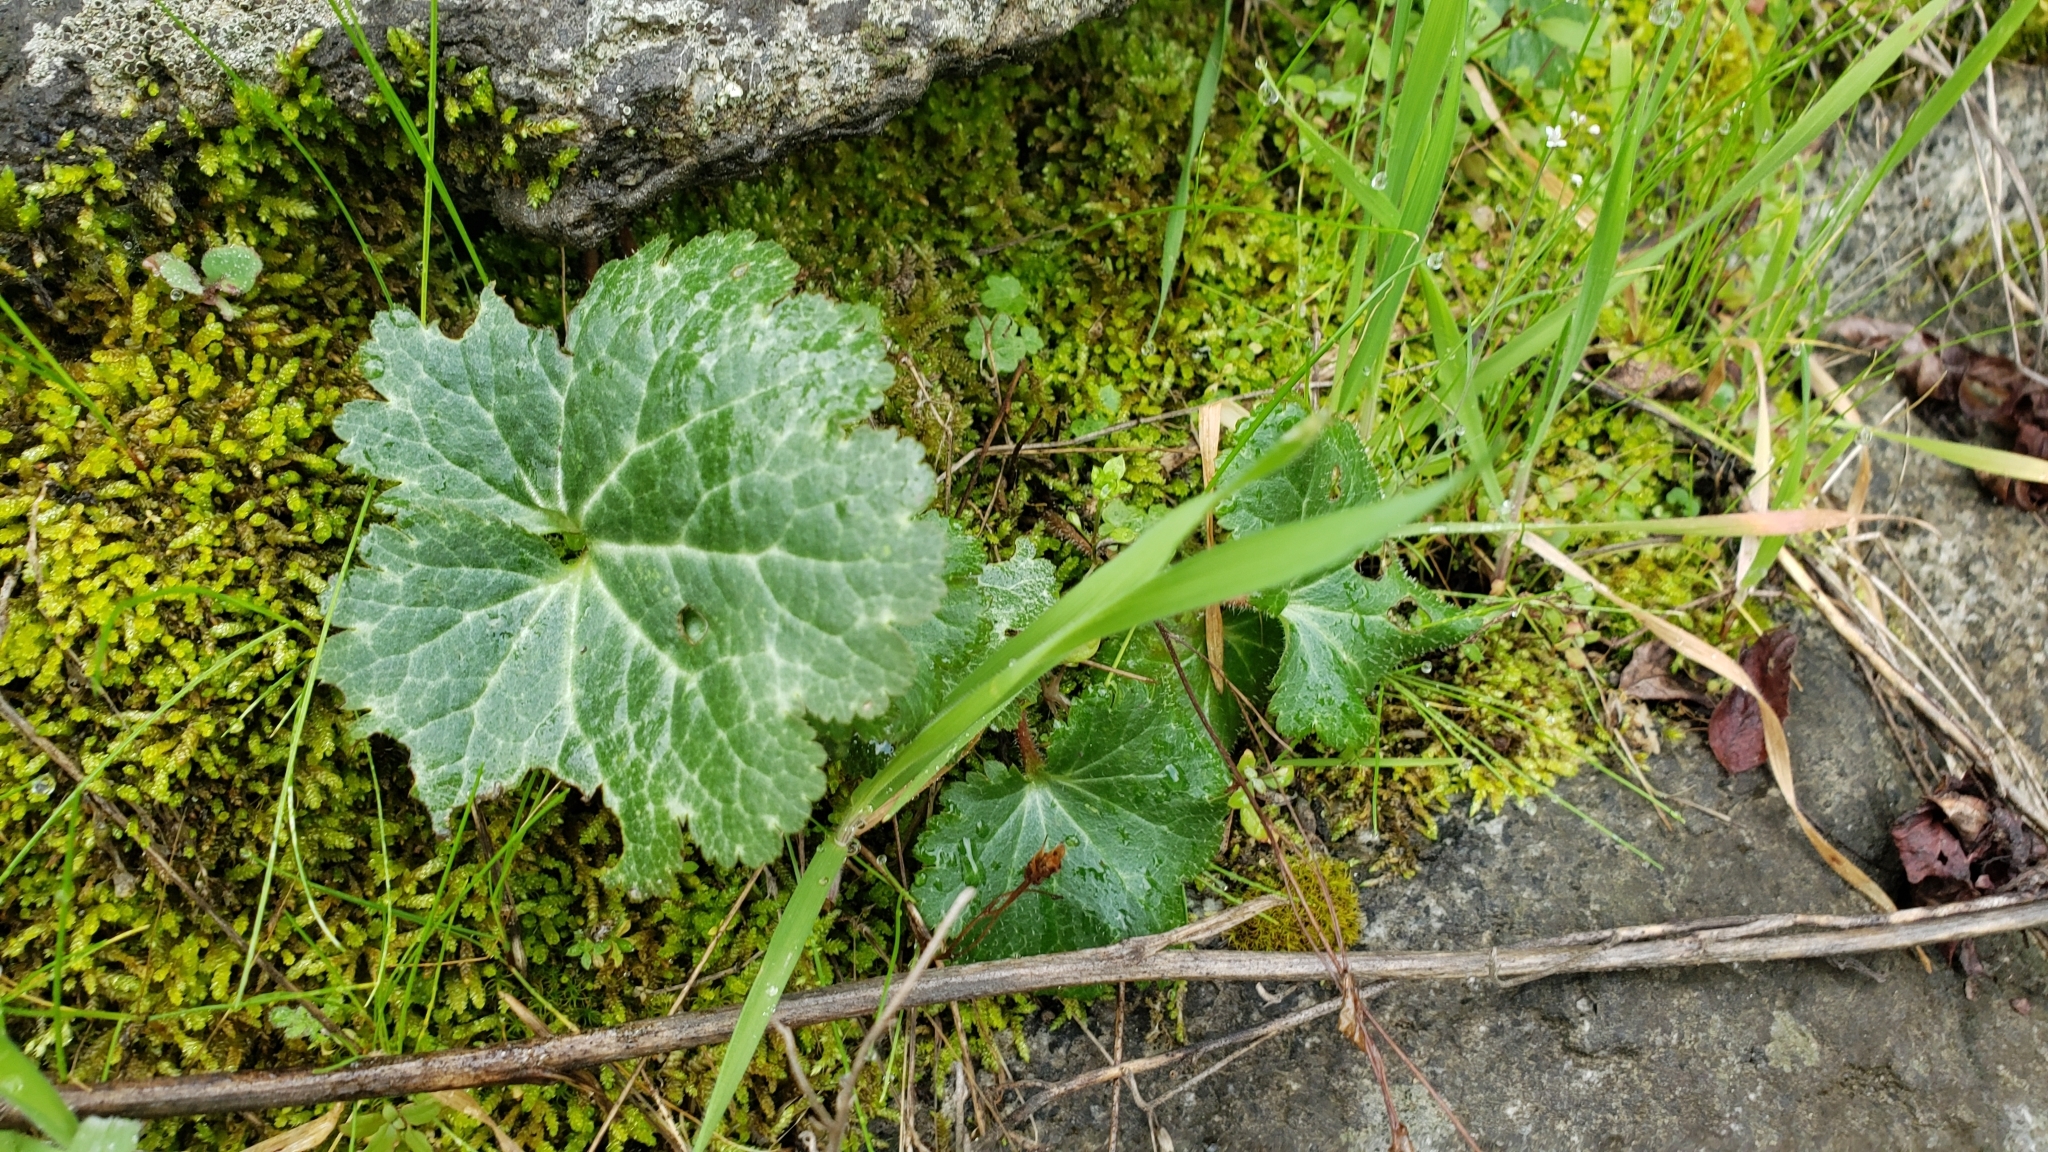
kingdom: Plantae
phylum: Tracheophyta
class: Magnoliopsida
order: Saxifragales
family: Saxifragaceae
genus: Jepsonia
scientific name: Jepsonia parryi
